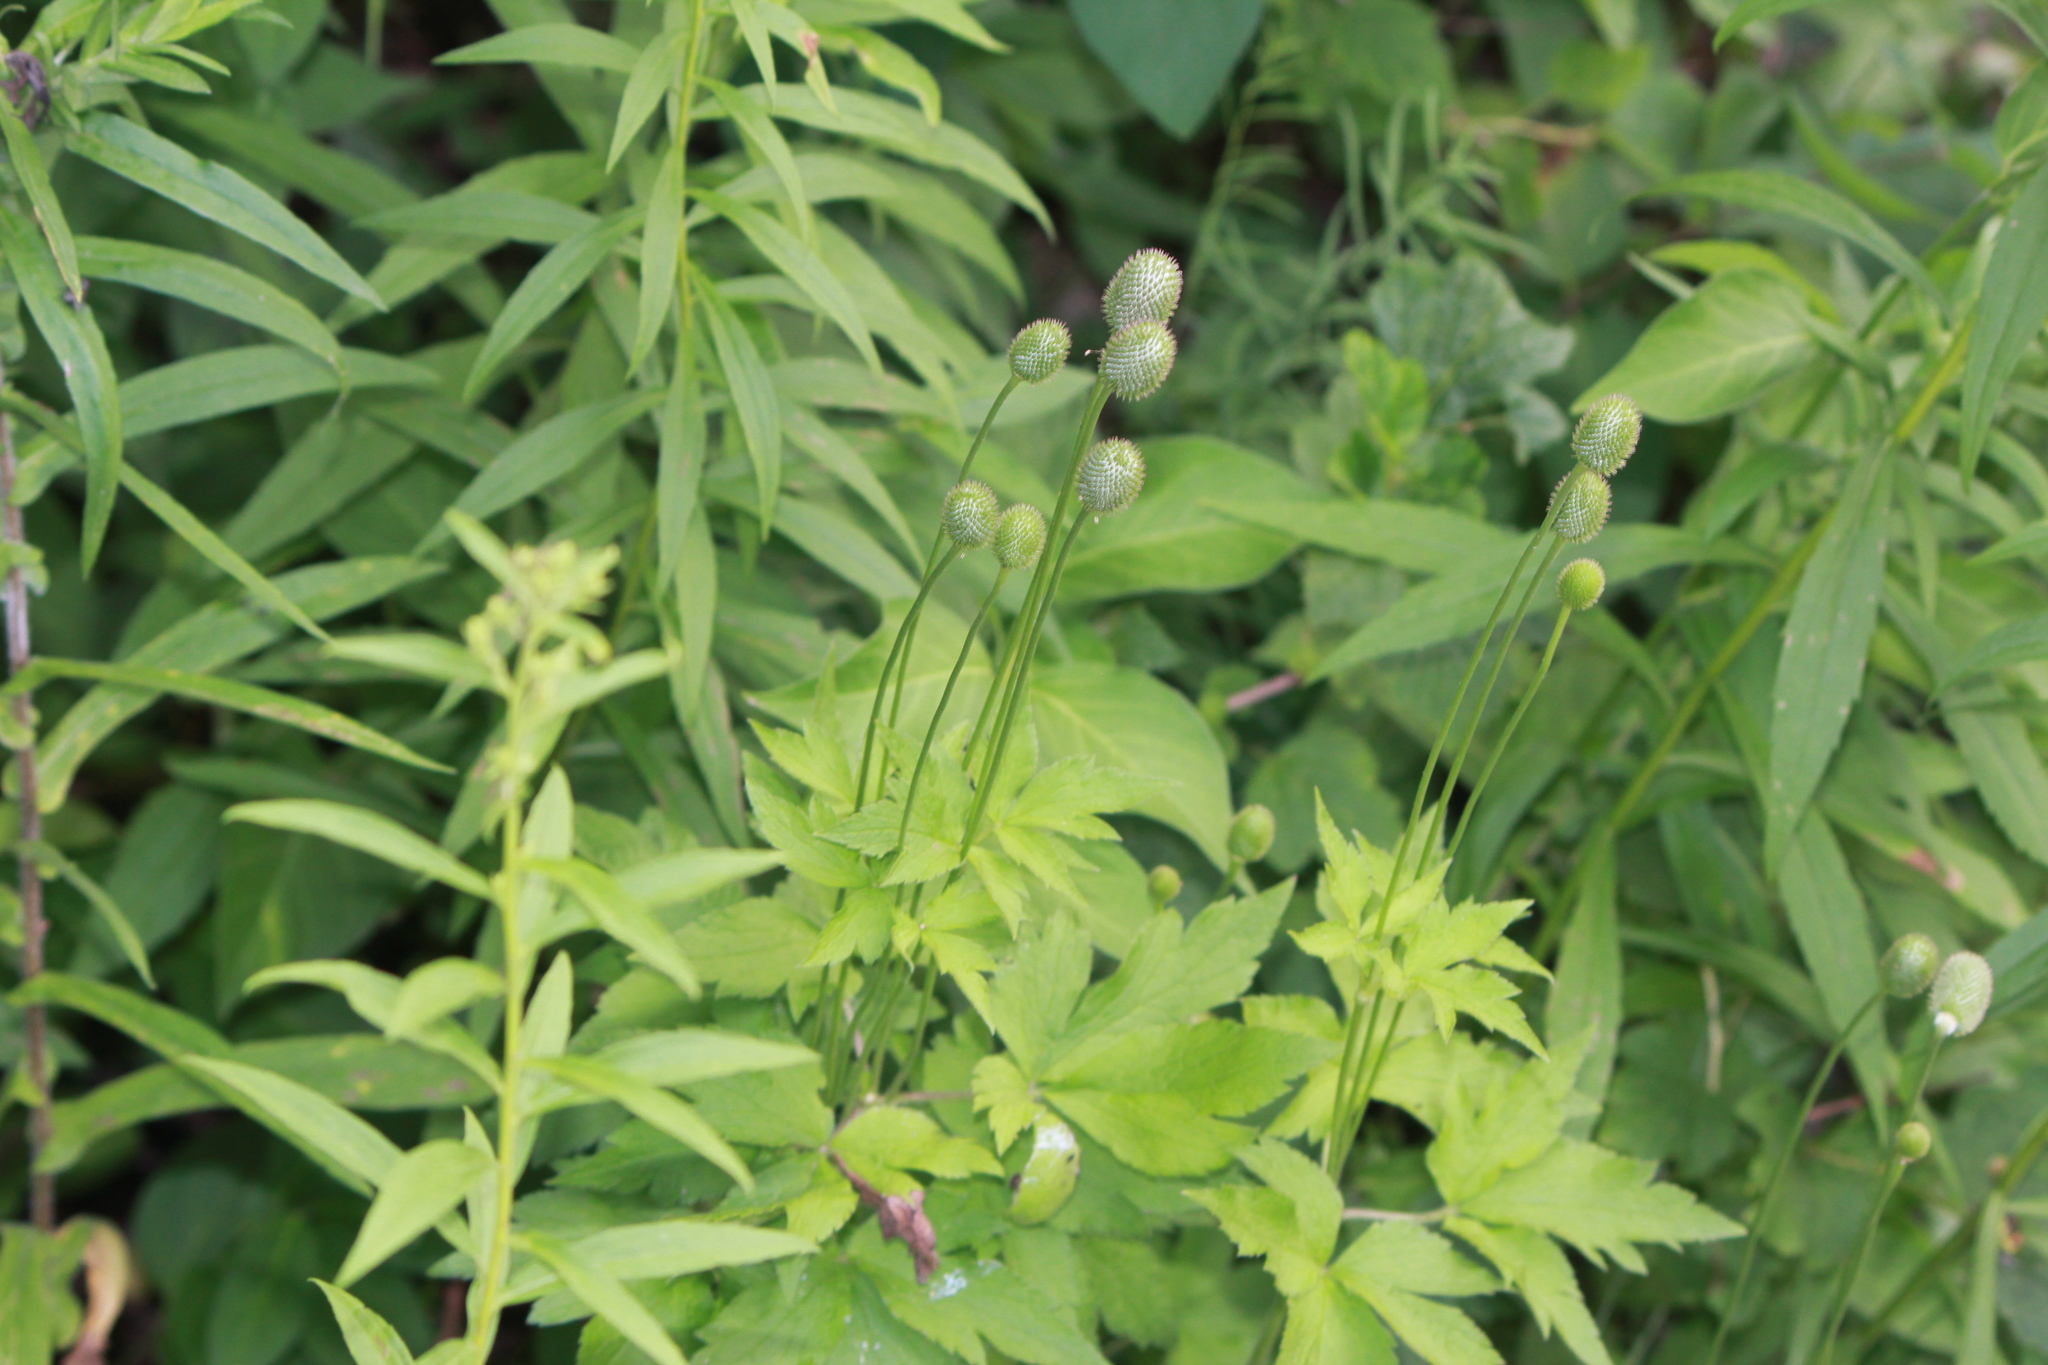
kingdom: Plantae
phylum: Tracheophyta
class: Magnoliopsida
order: Ranunculales
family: Ranunculaceae
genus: Anemone
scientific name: Anemone virginiana
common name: Tall anemone
